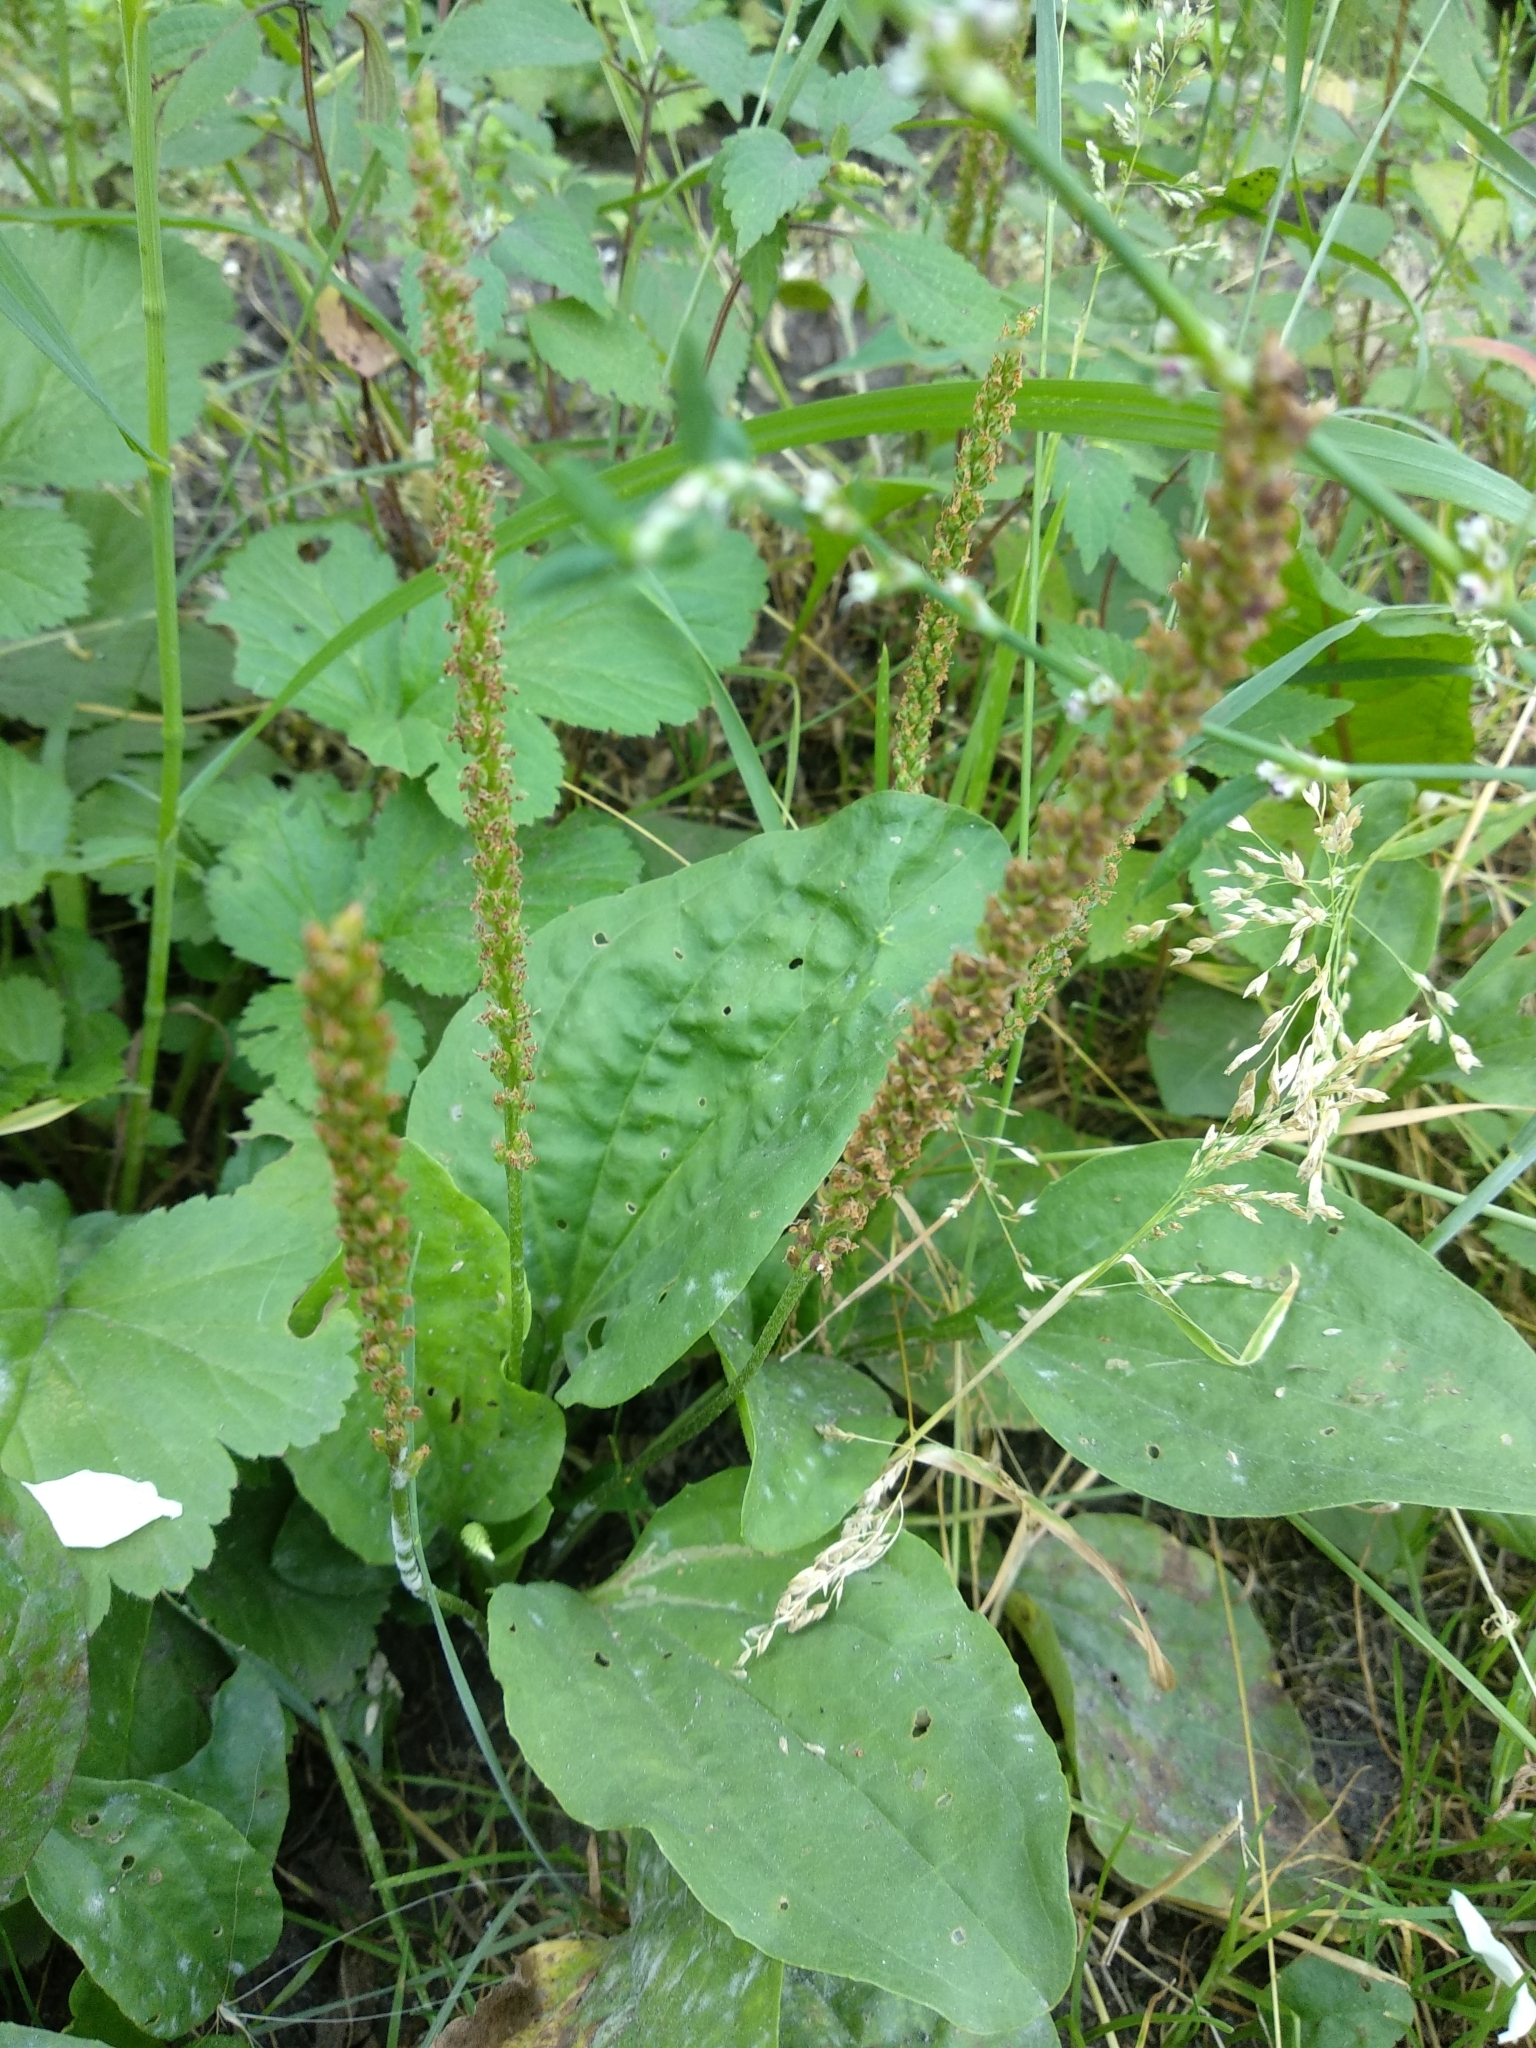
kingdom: Plantae
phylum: Tracheophyta
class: Magnoliopsida
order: Lamiales
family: Plantaginaceae
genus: Plantago
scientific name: Plantago major
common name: Common plantain
